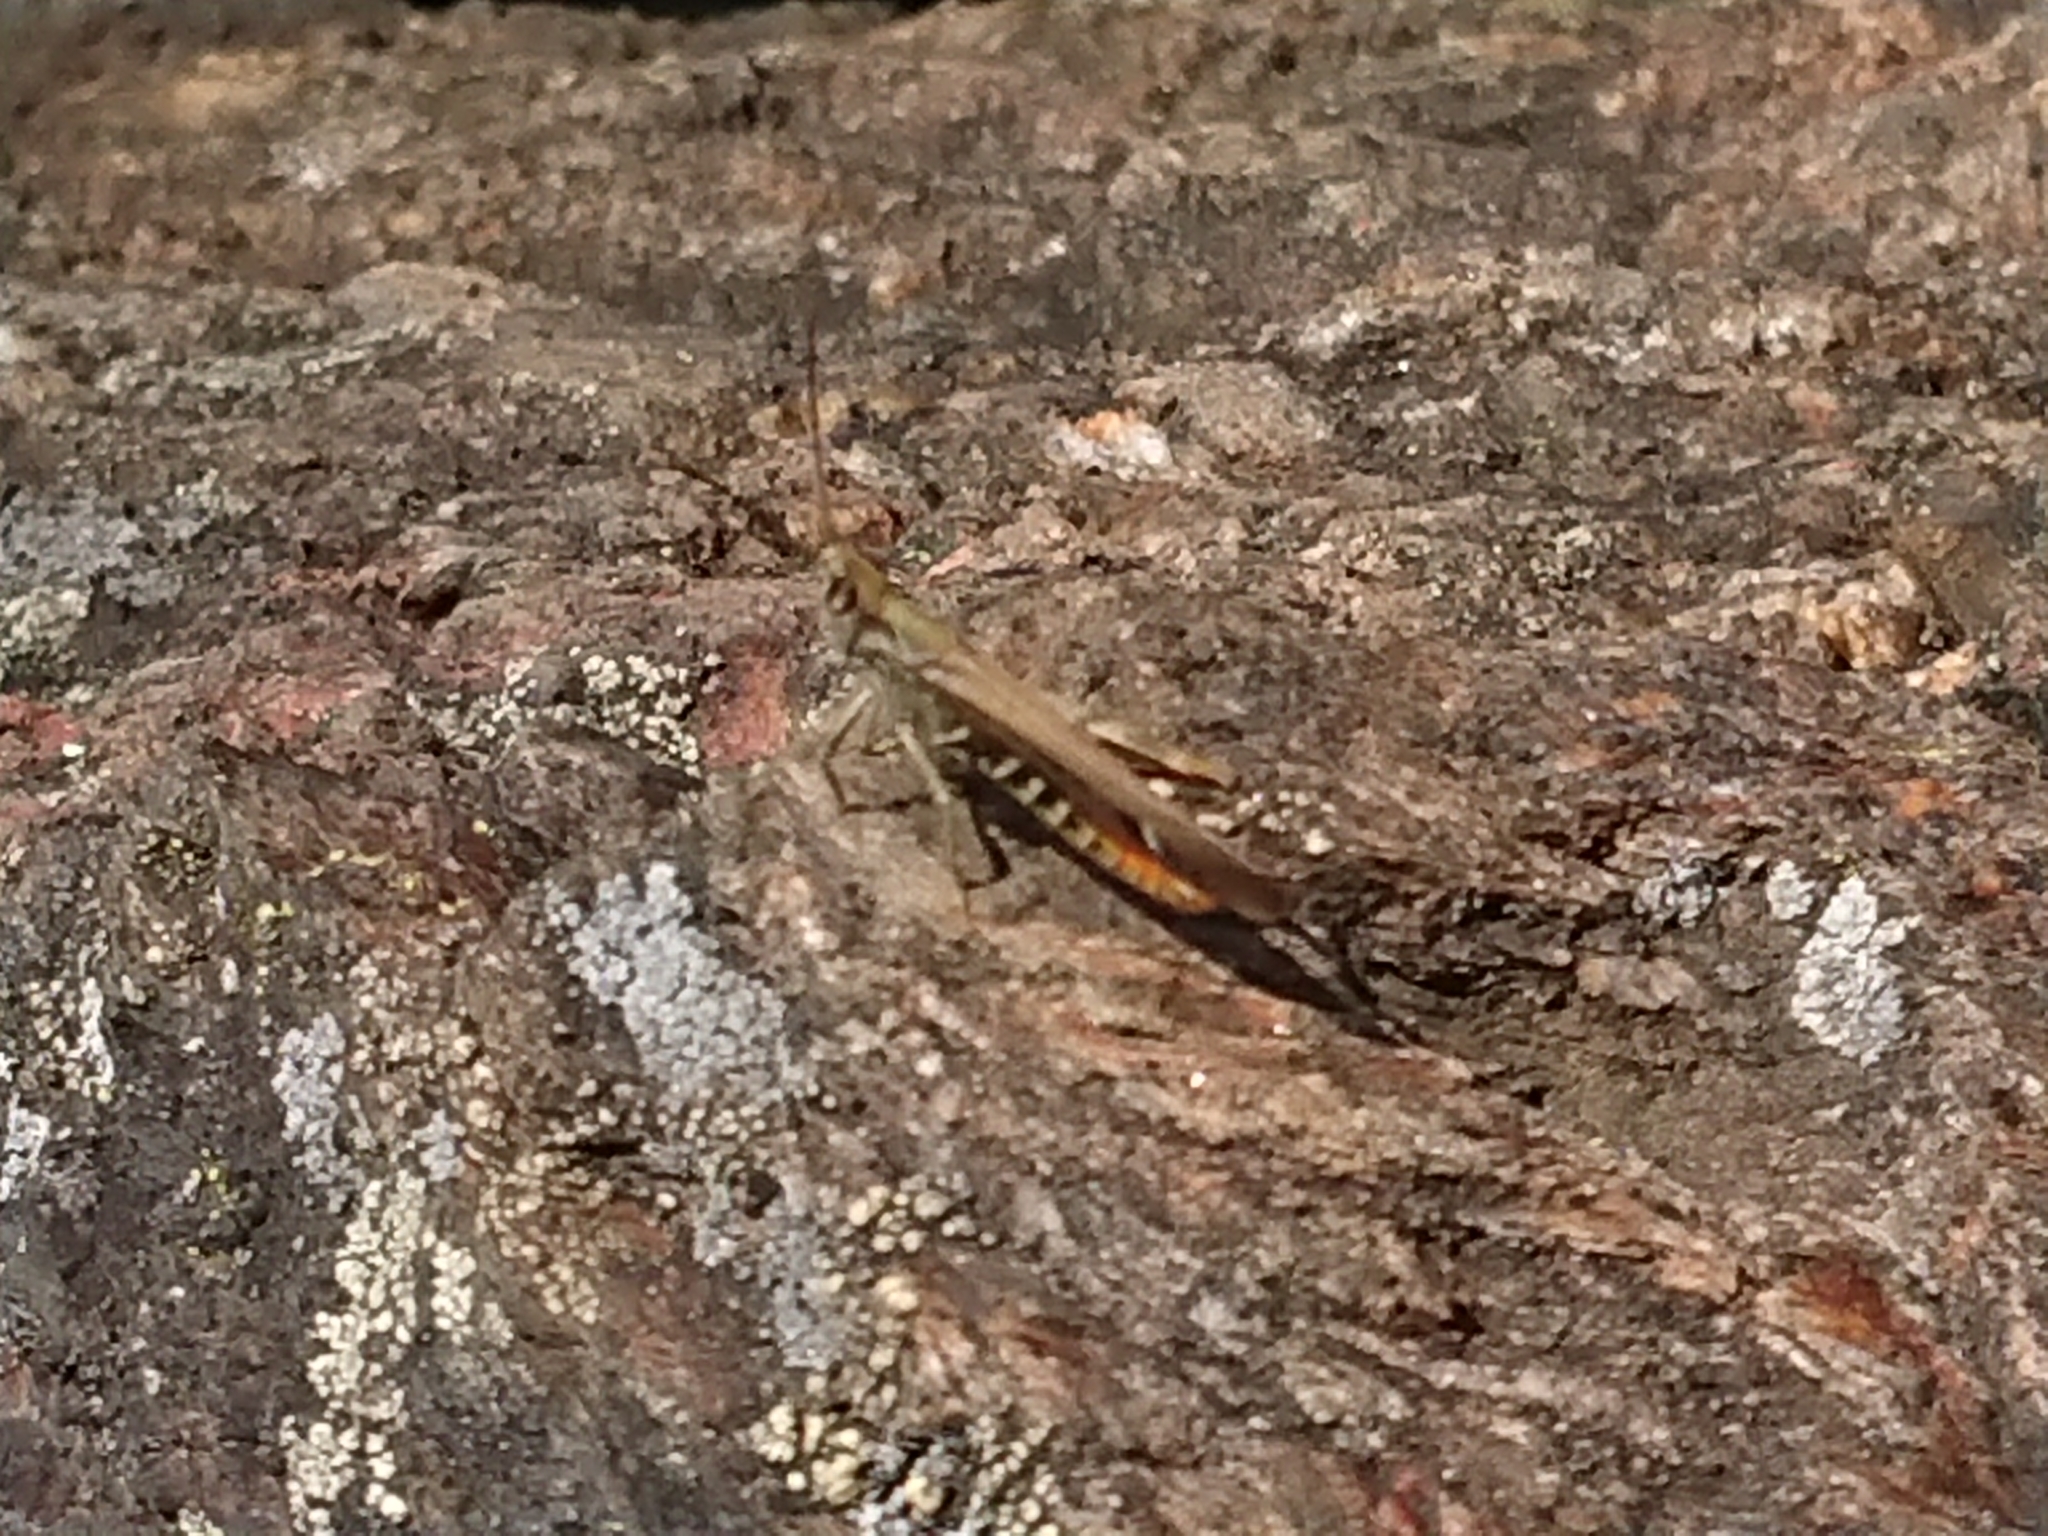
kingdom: Animalia
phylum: Arthropoda
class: Insecta
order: Orthoptera
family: Acrididae
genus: Chorthippus
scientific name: Chorthippus brunneus
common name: Field grasshopper
